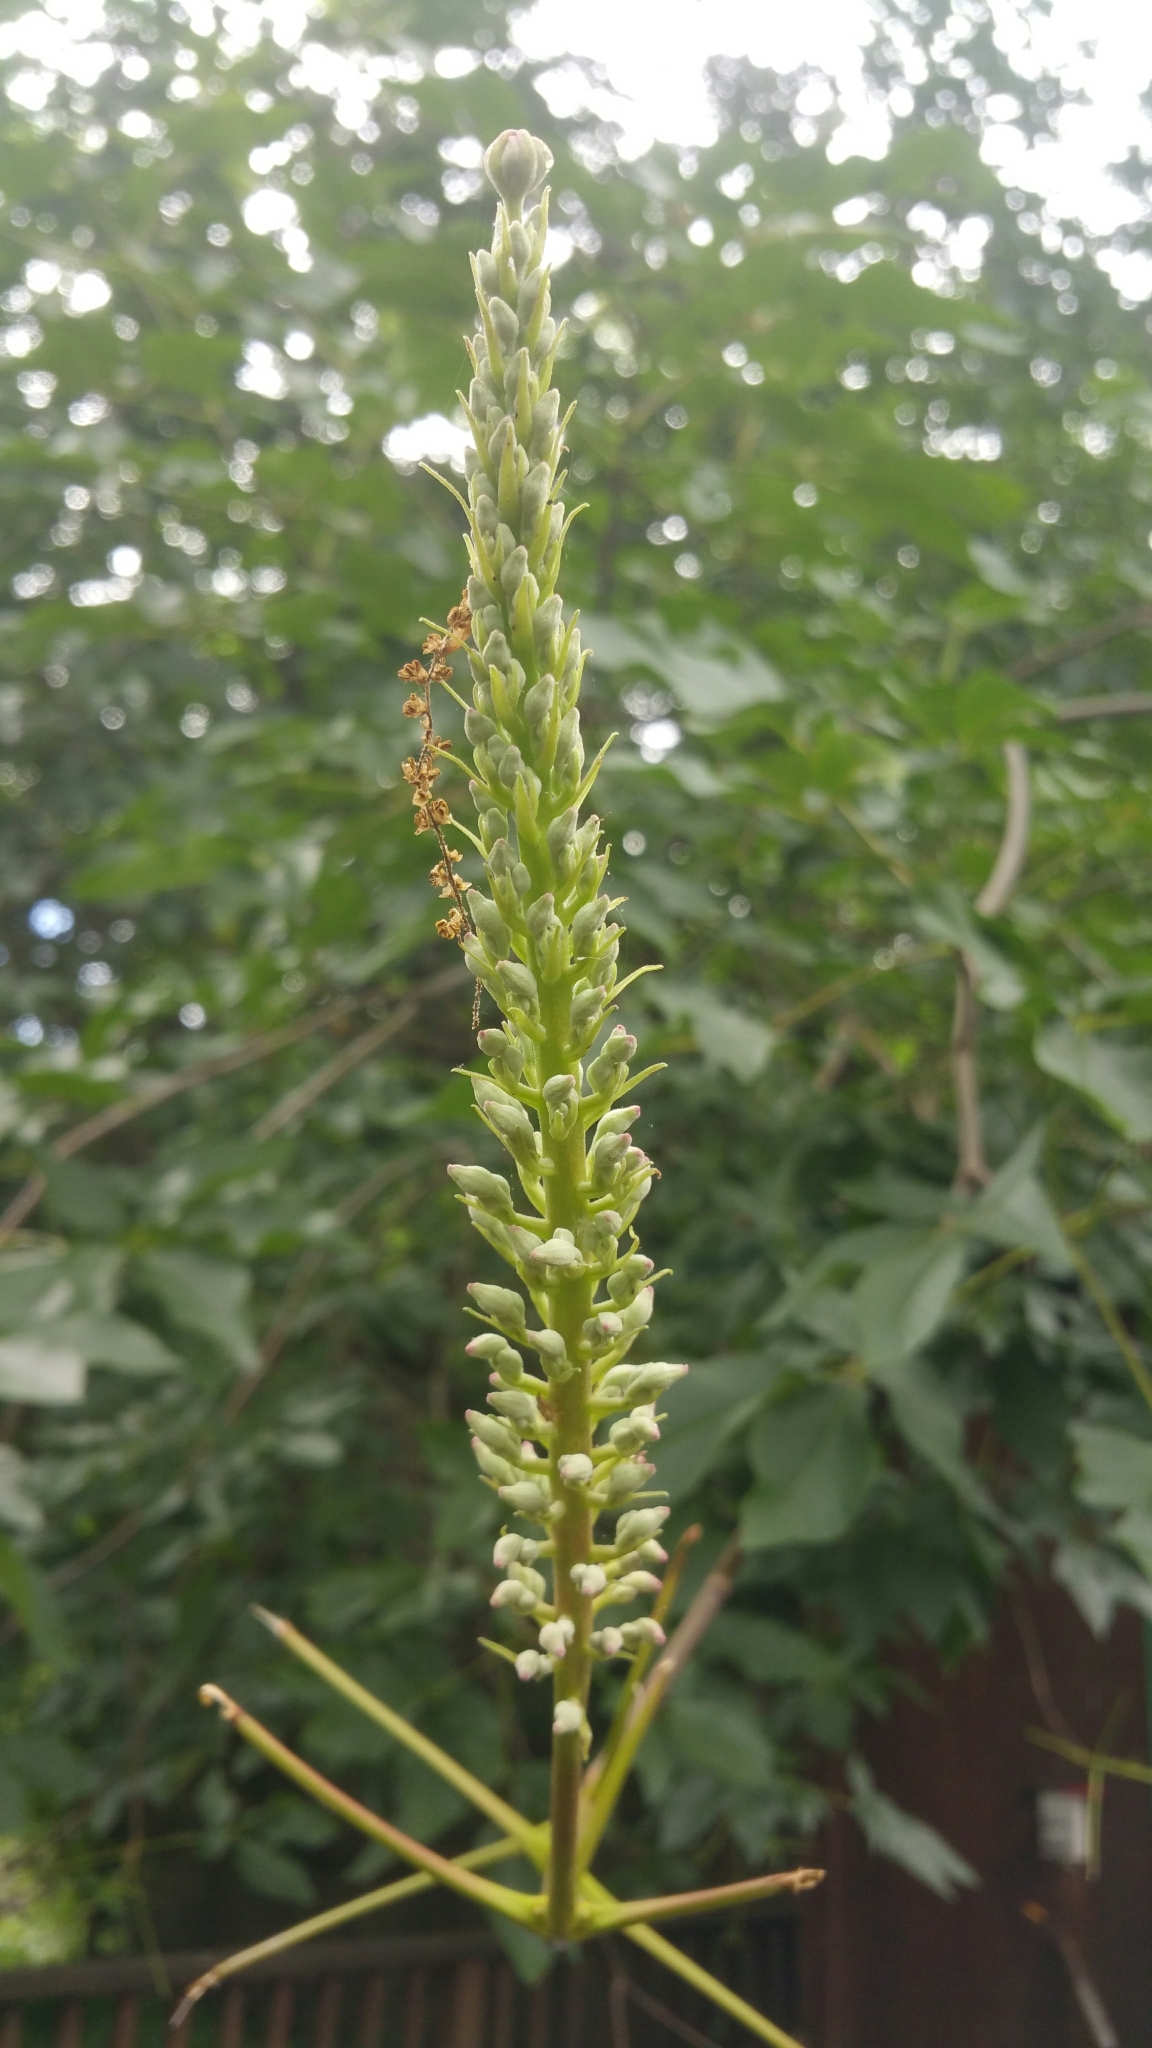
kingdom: Plantae
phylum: Tracheophyta
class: Magnoliopsida
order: Sapindales
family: Sapindaceae
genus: Aesculus
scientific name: Aesculus californica
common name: California buckeye
